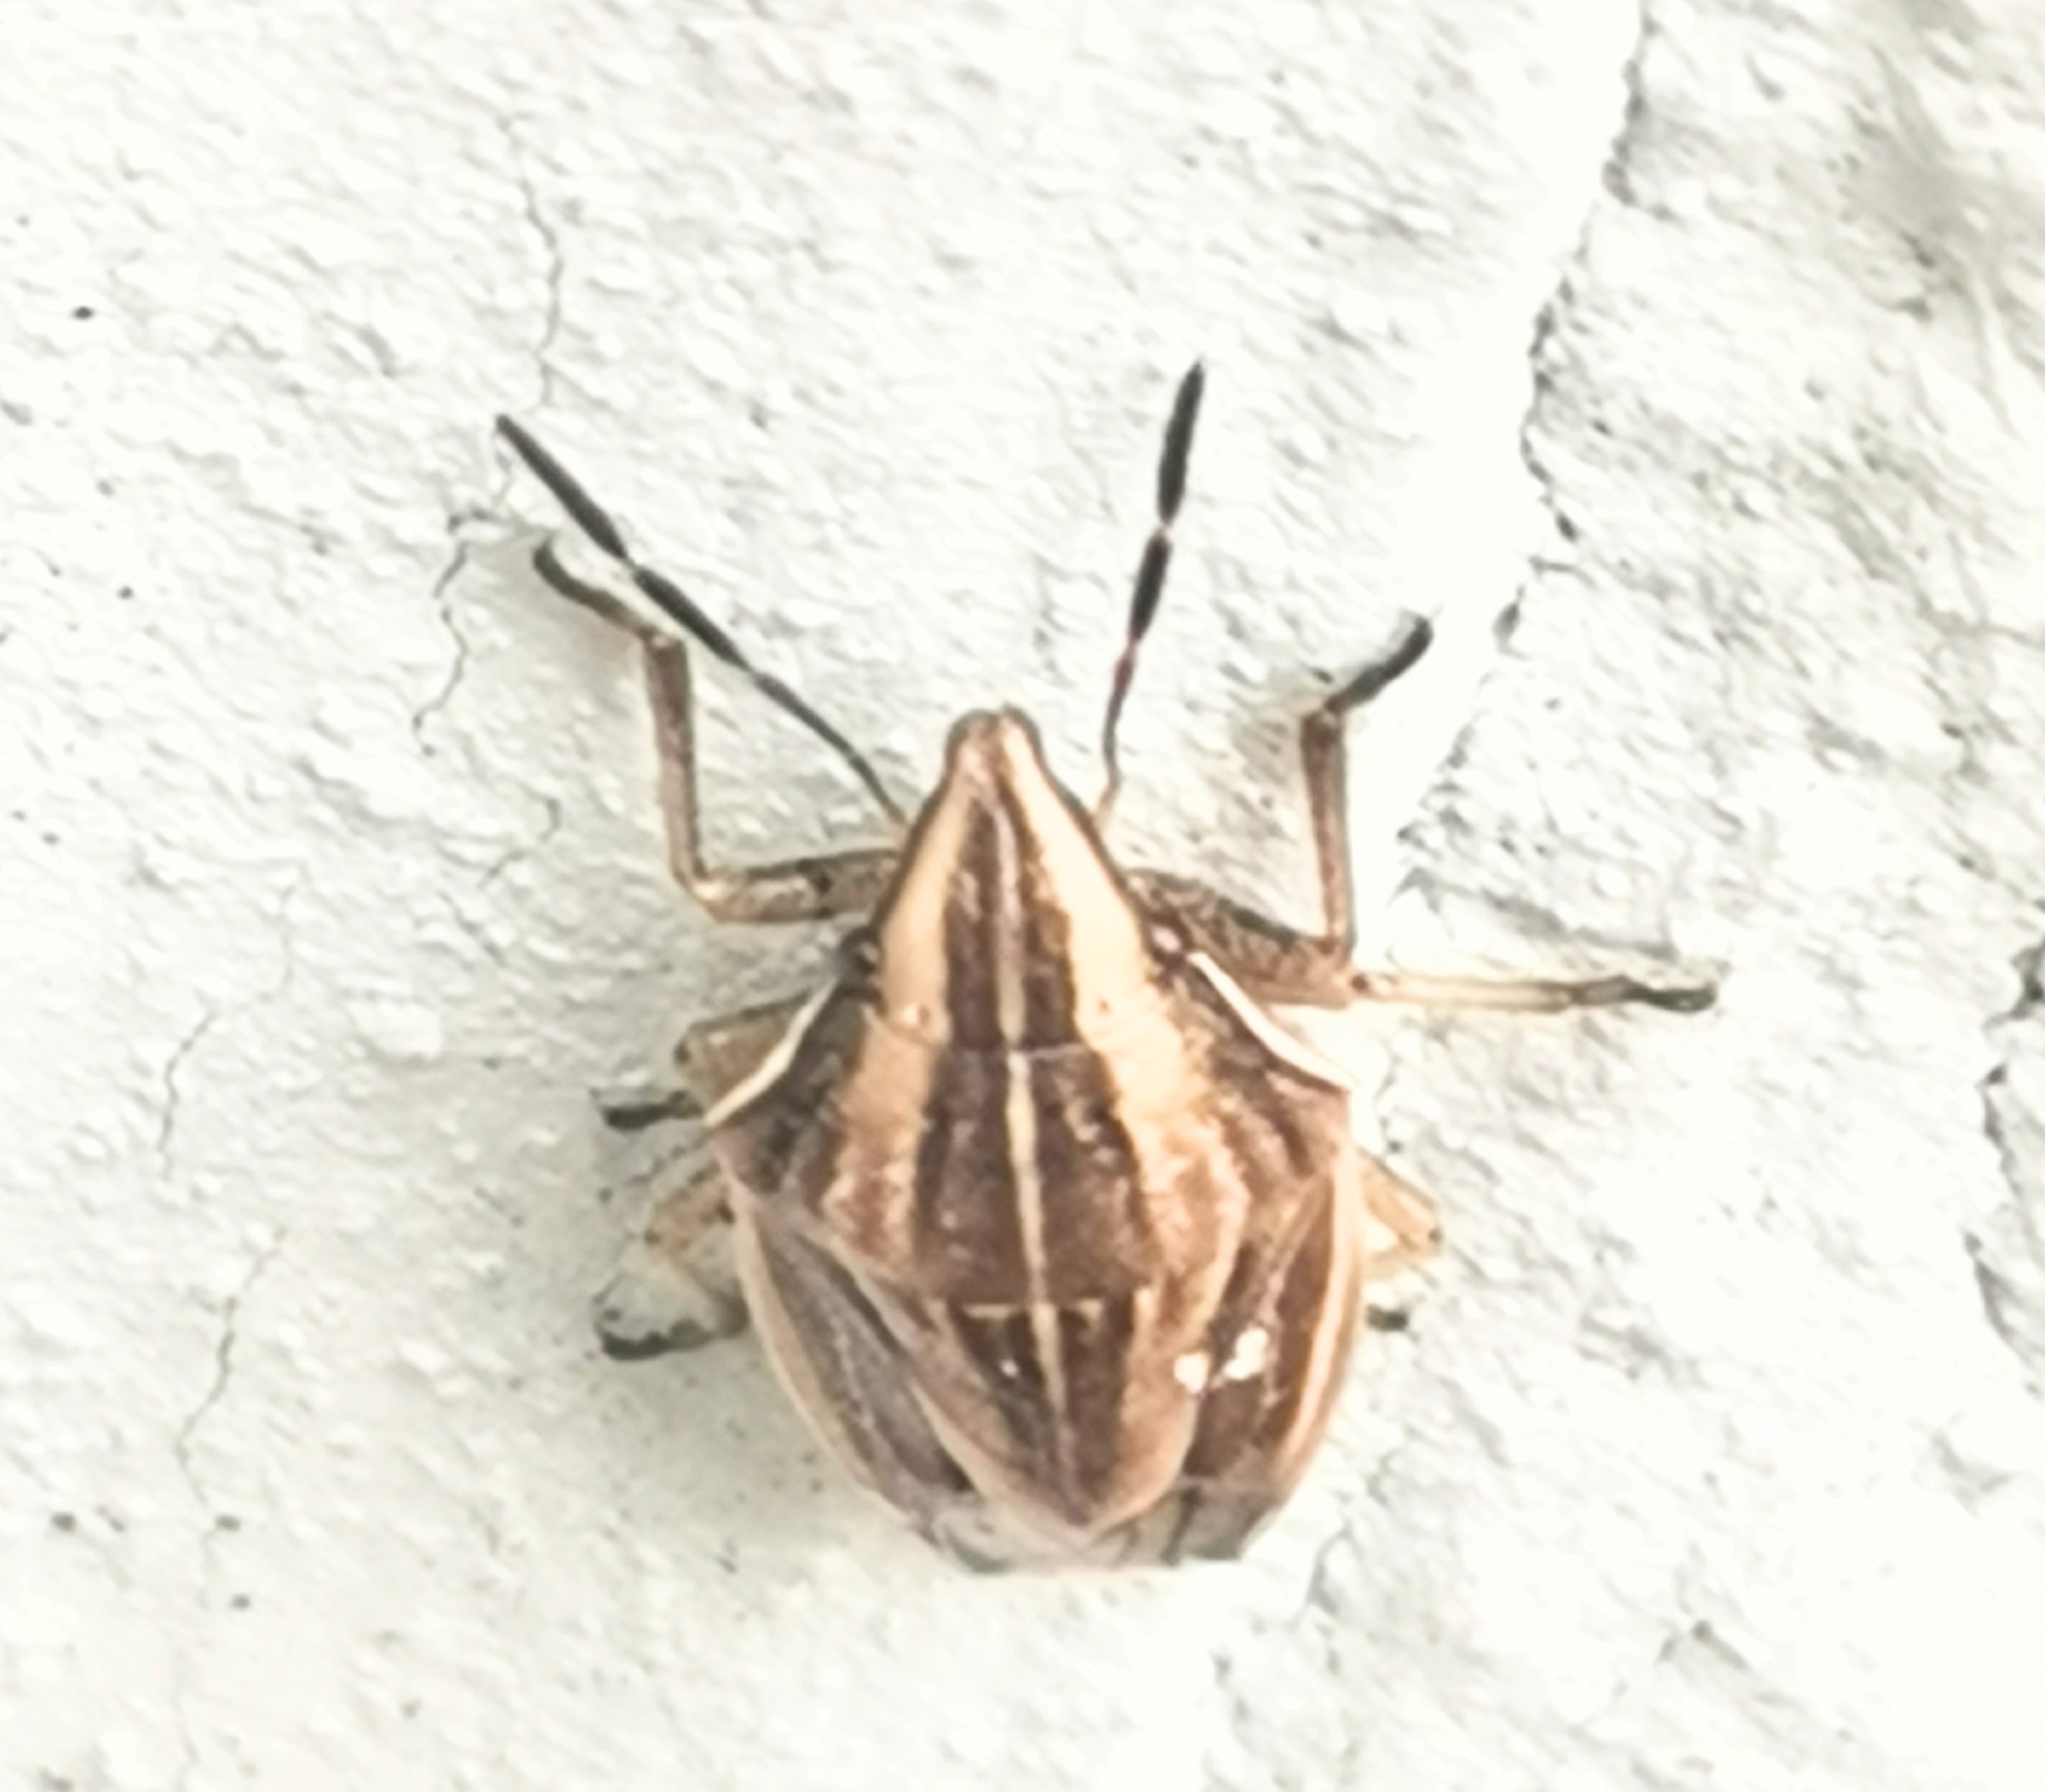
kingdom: Animalia
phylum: Arthropoda
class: Insecta
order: Hemiptera
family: Pentatomidae
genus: Aelia
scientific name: Aelia acuminata
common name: Bishop's mitre
